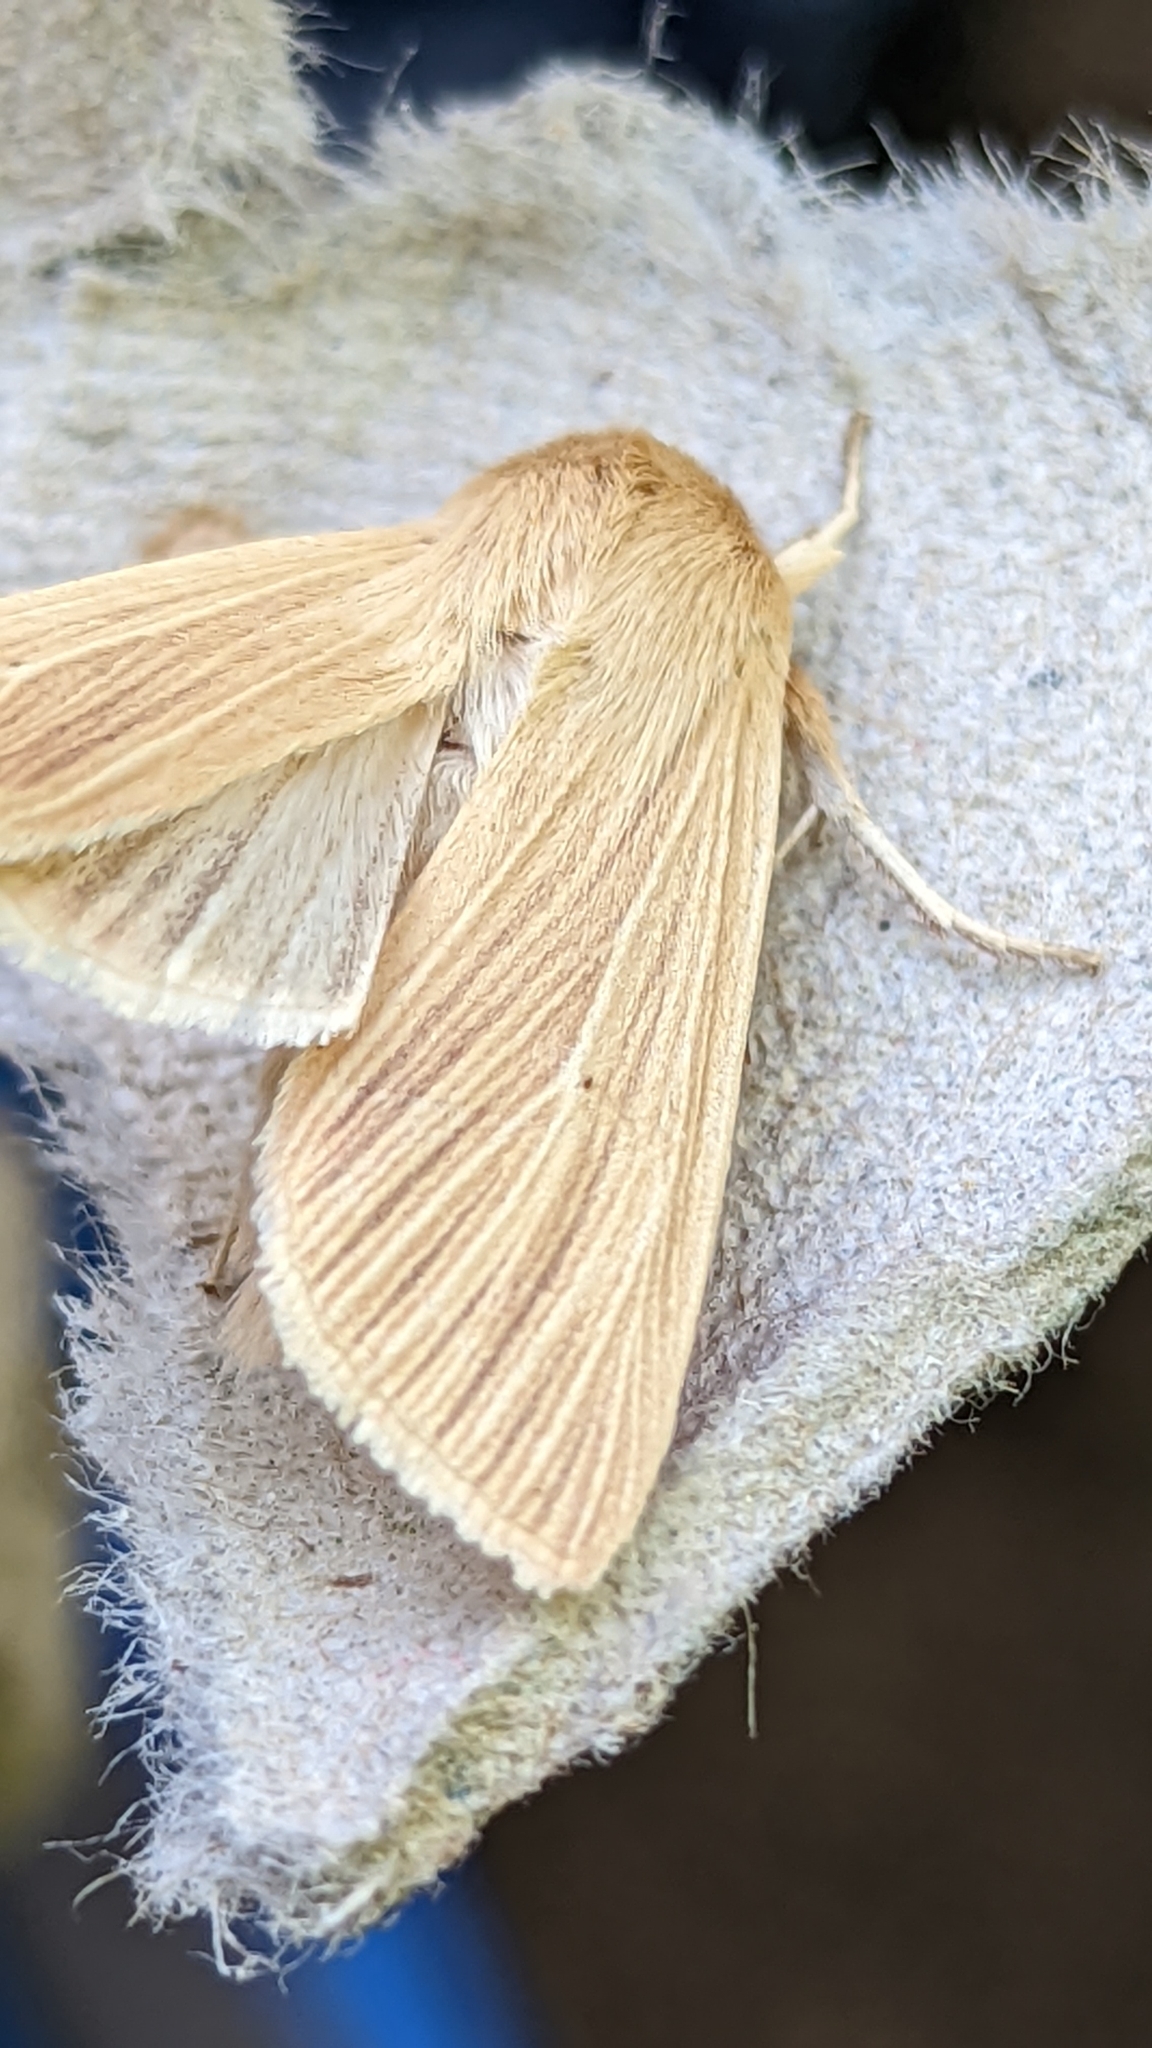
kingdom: Animalia
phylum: Arthropoda
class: Insecta
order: Lepidoptera
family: Noctuidae
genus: Mythimna
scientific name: Mythimna pallens
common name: Common wainscot
